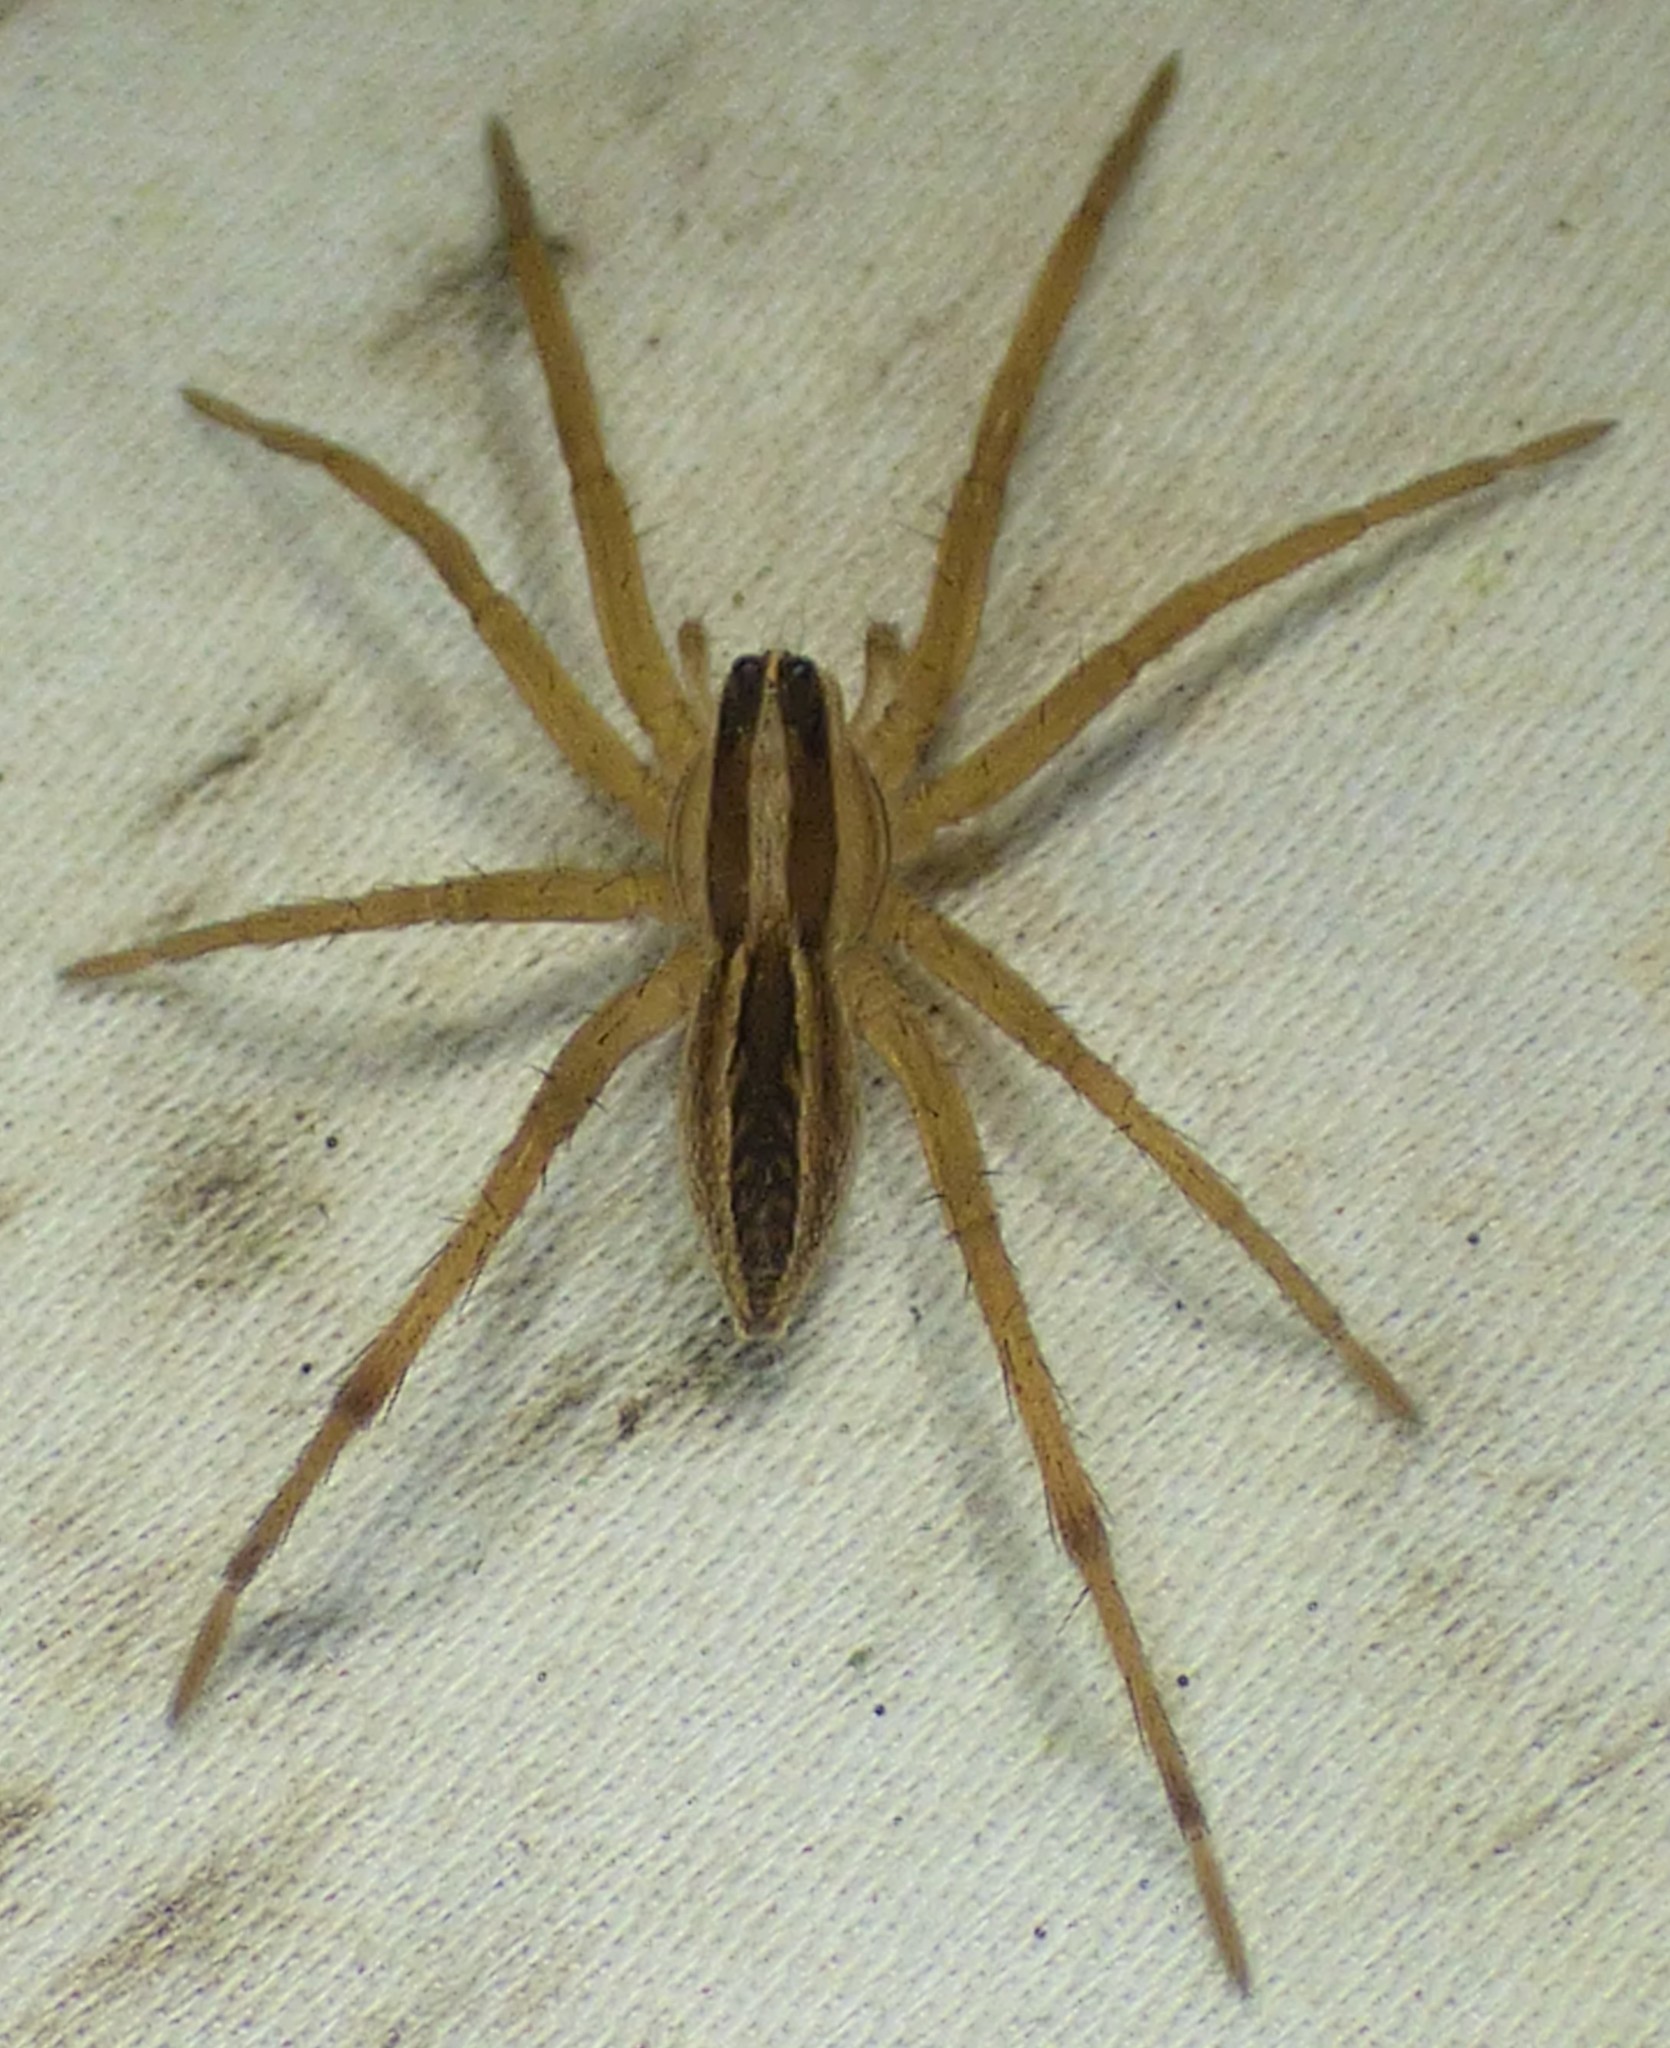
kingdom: Animalia
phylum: Arthropoda
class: Arachnida
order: Araneae
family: Lycosidae
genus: Rabidosa
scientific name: Rabidosa rabida
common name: Rabid wolf spider
